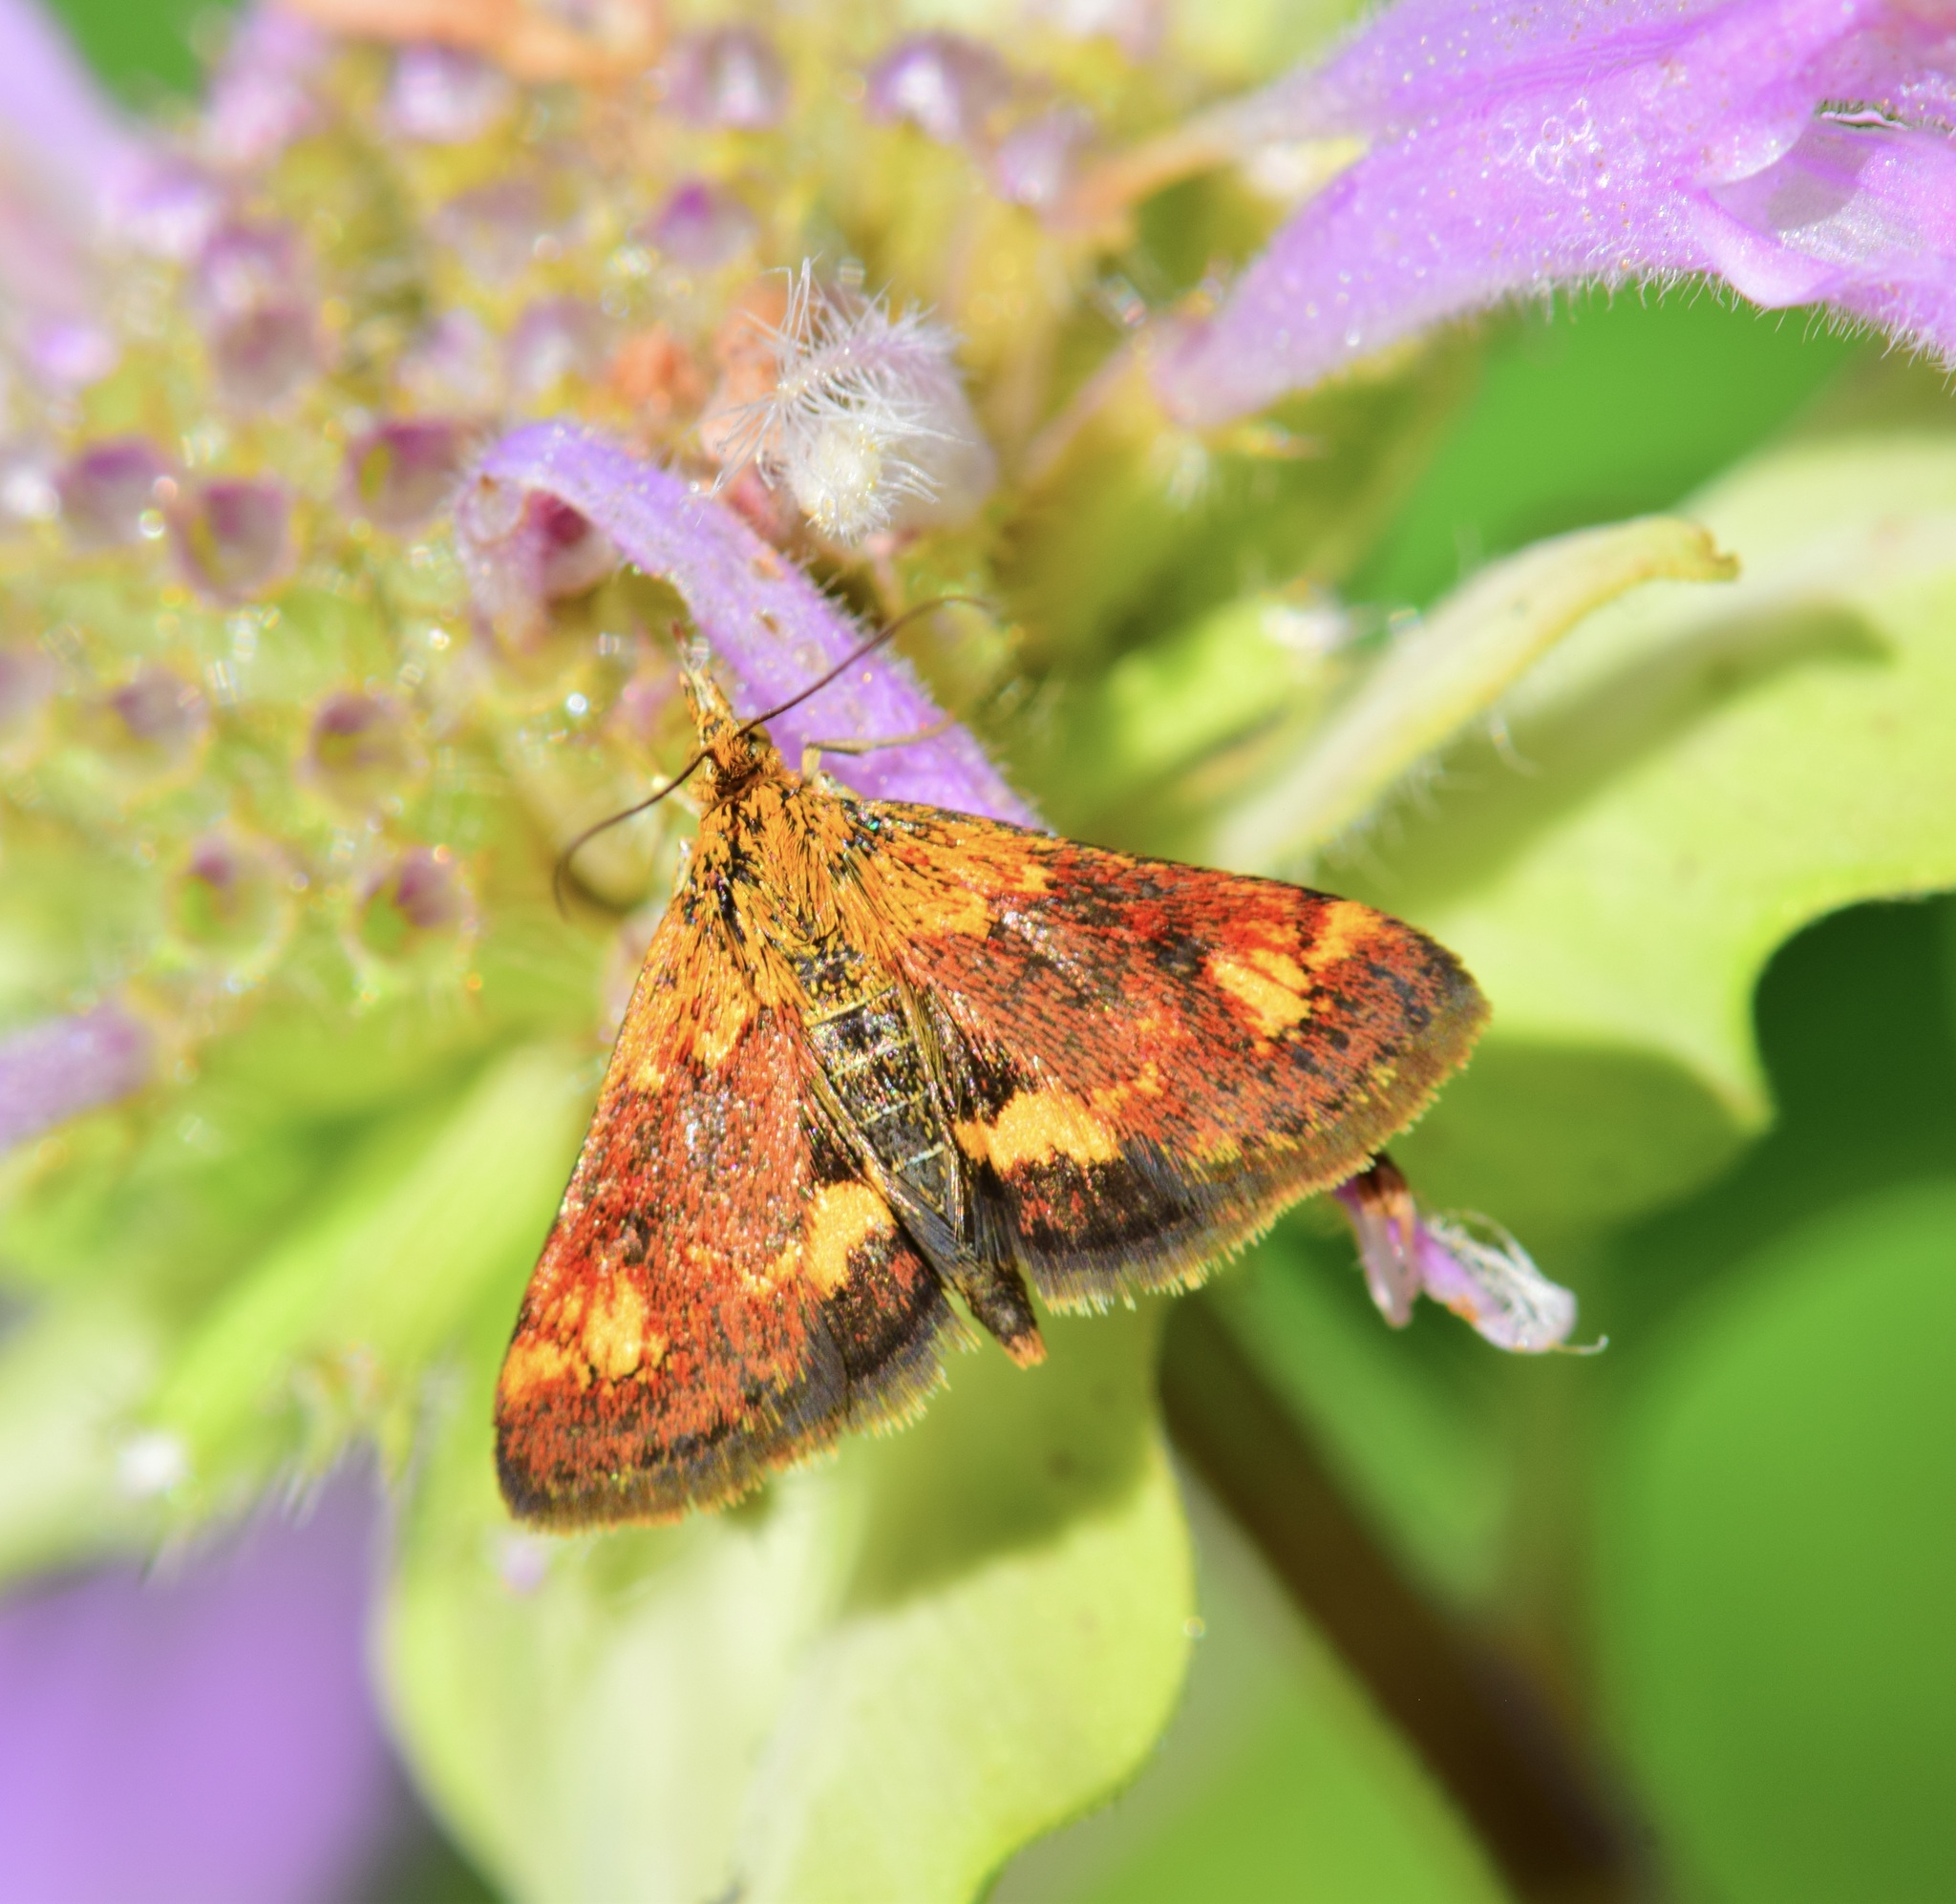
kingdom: Animalia
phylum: Arthropoda
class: Insecta
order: Lepidoptera
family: Crambidae
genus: Pyrausta
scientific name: Pyrausta orphisalis
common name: Orange mint moth
